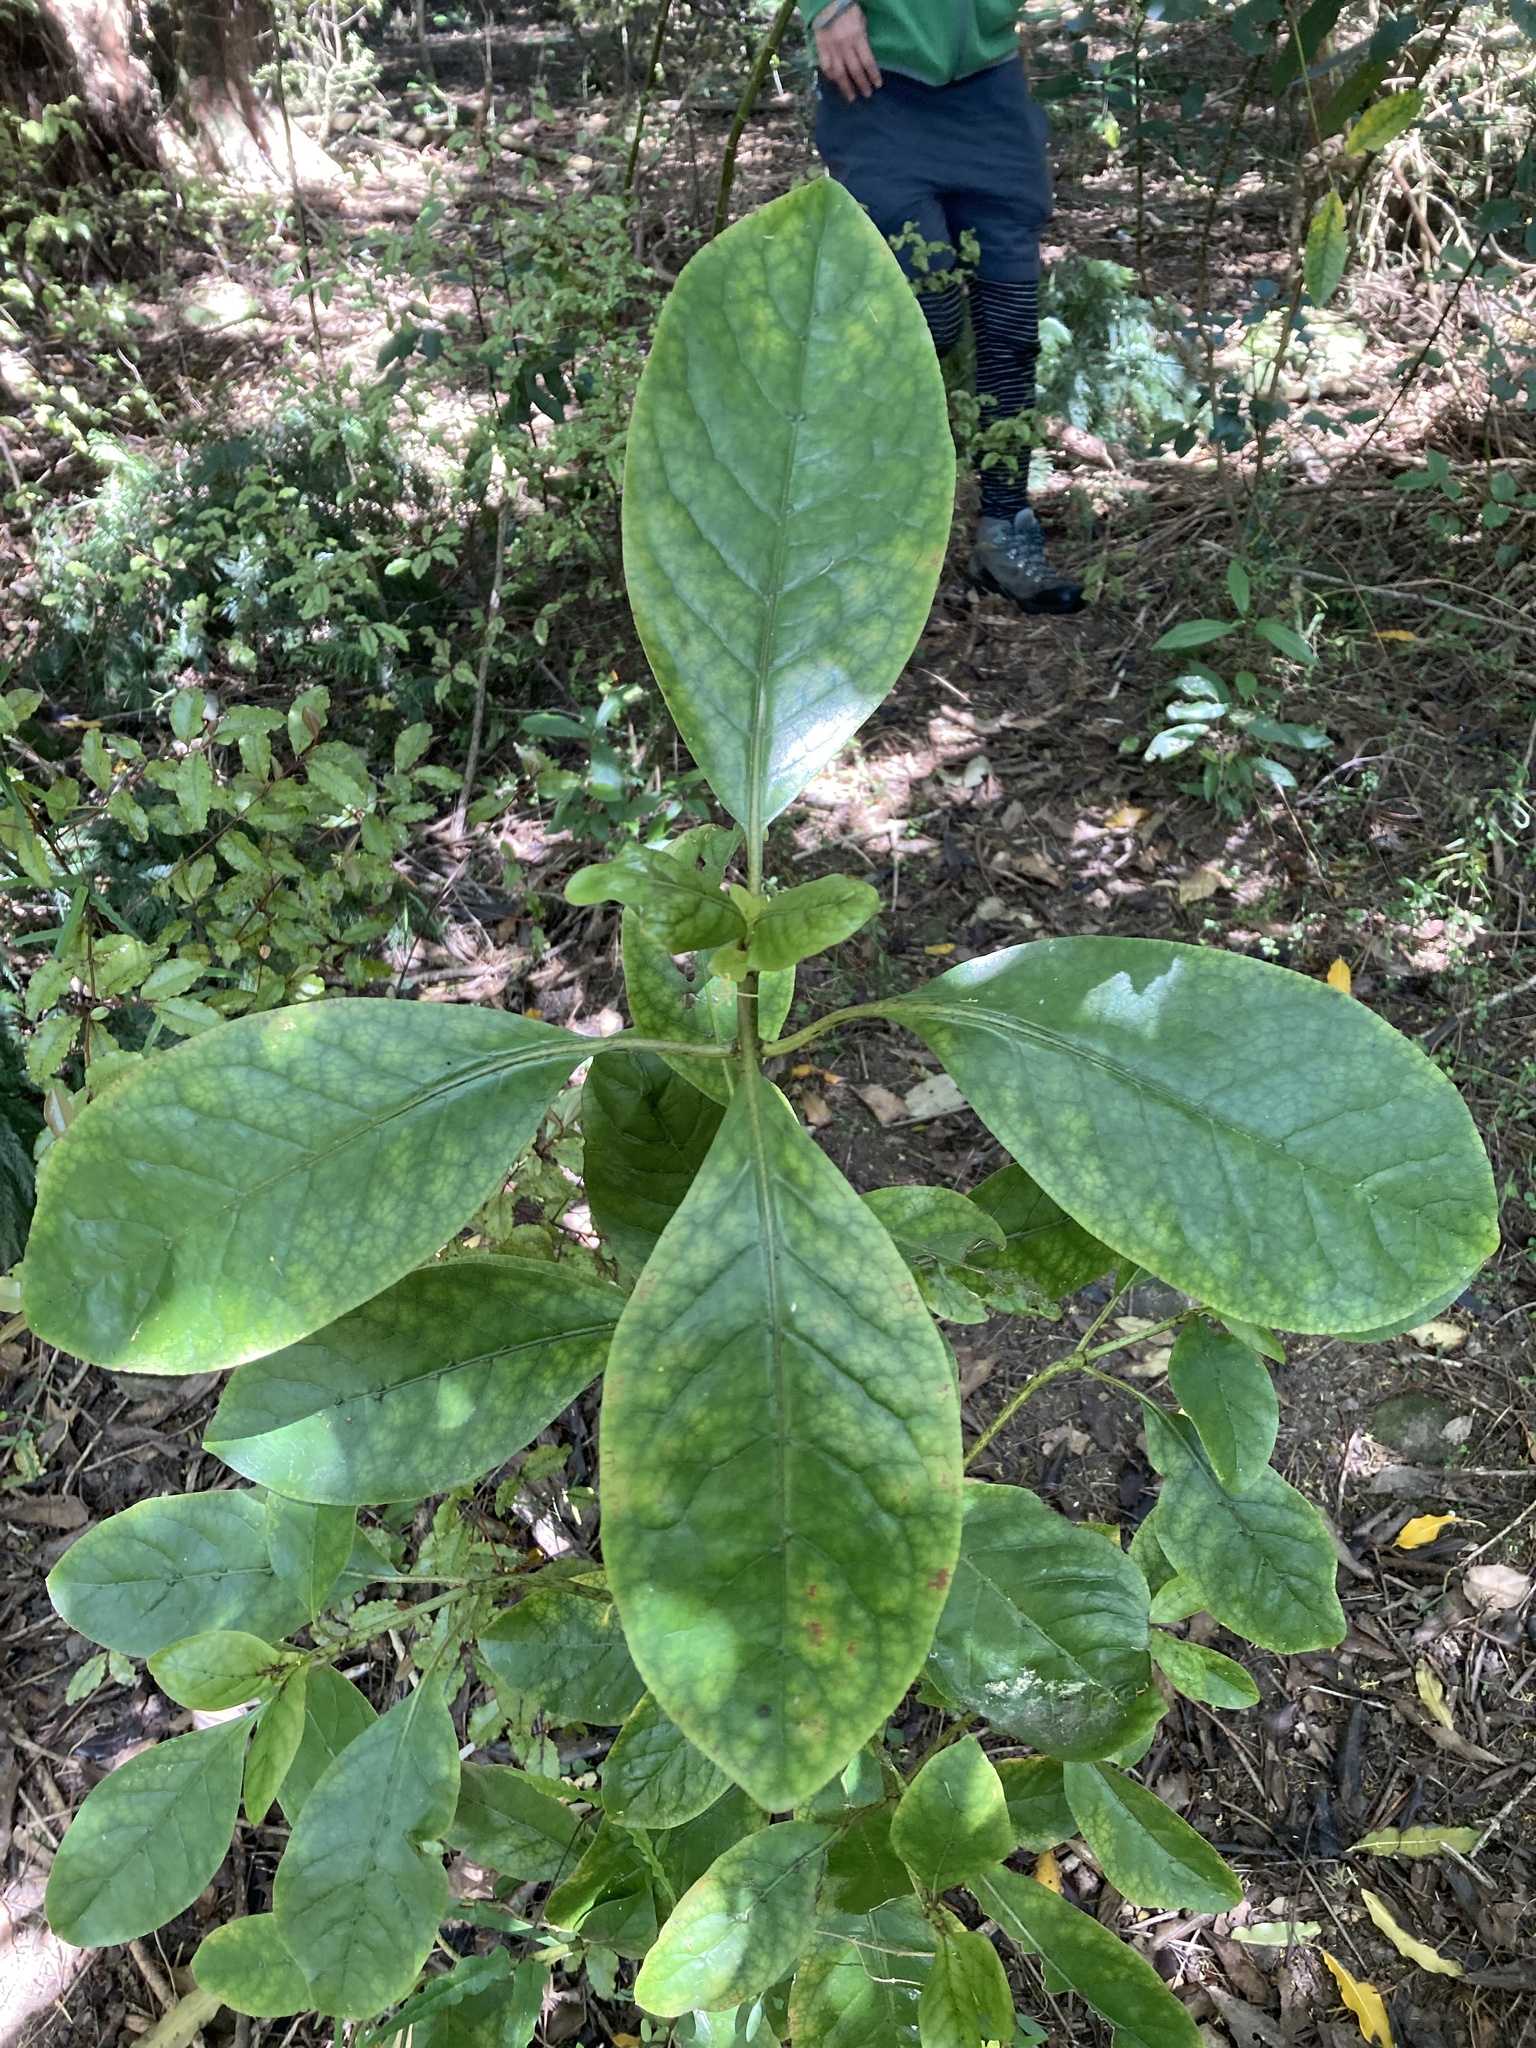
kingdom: Plantae
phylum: Tracheophyta
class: Magnoliopsida
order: Gentianales
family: Rubiaceae
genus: Coprosma
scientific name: Coprosma autumnalis
